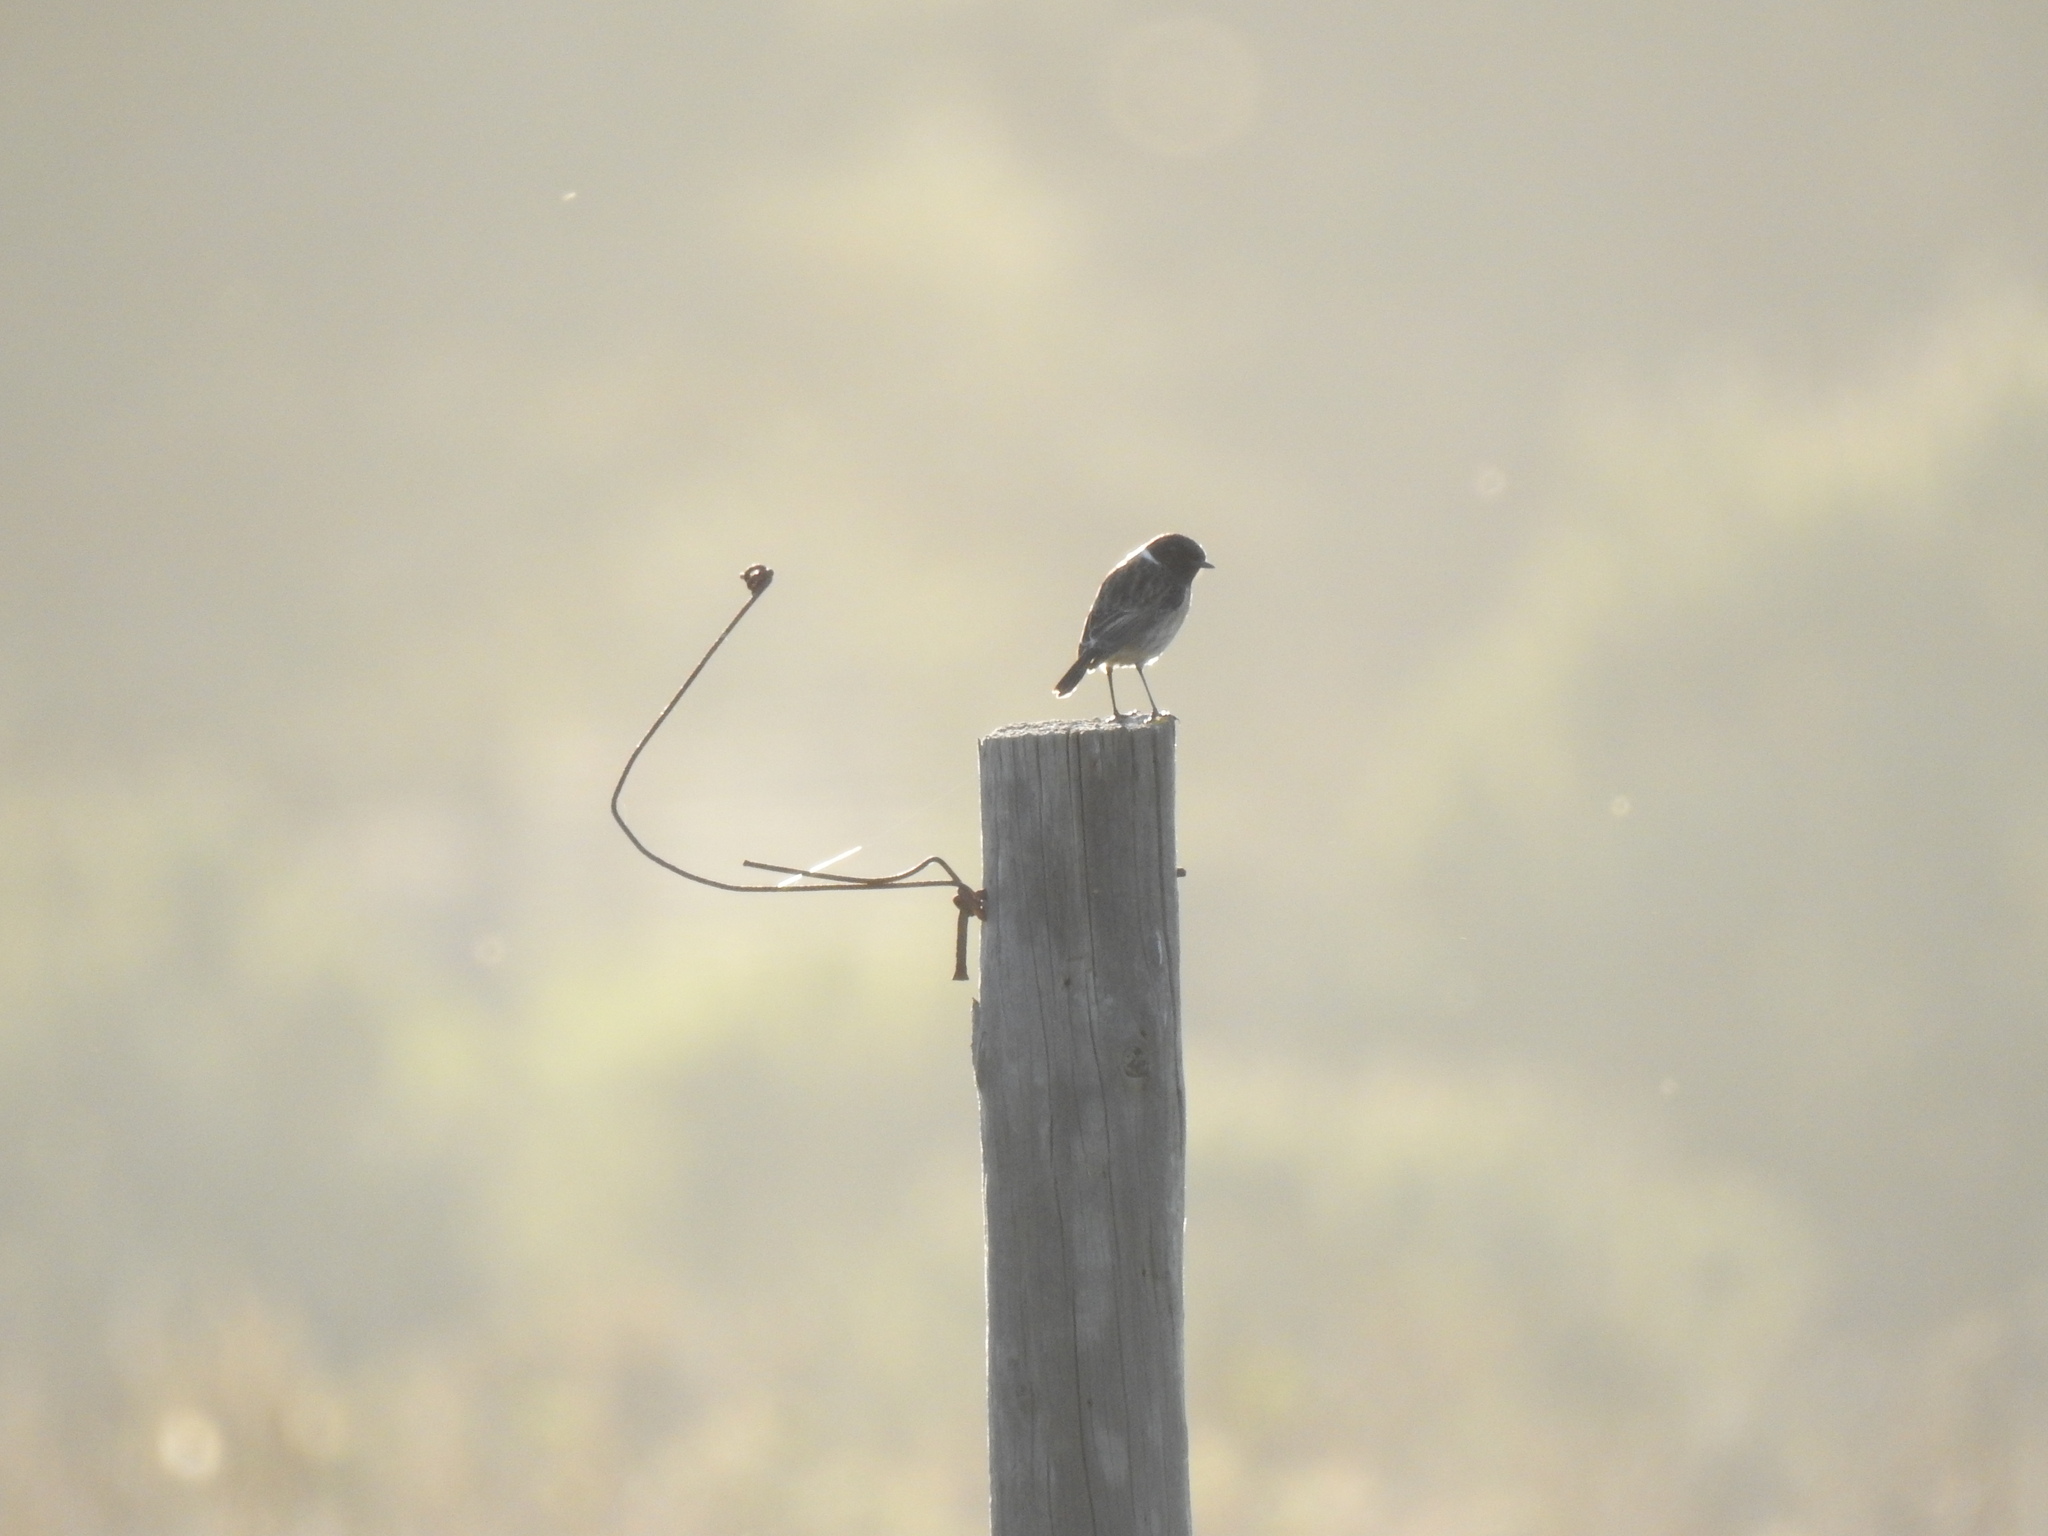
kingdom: Animalia
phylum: Chordata
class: Aves
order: Passeriformes
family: Muscicapidae
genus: Saxicola
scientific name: Saxicola rubicola
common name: European stonechat
